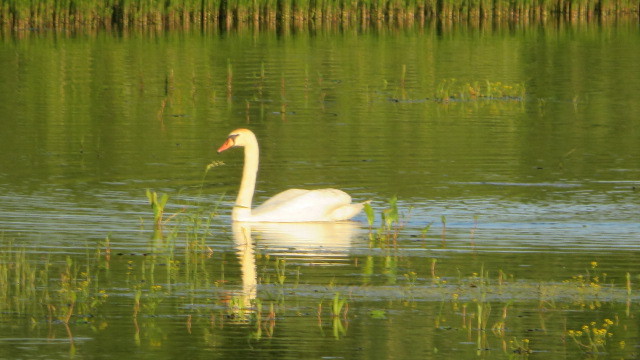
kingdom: Animalia
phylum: Chordata
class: Aves
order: Anseriformes
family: Anatidae
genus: Cygnus
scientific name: Cygnus olor
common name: Mute swan
